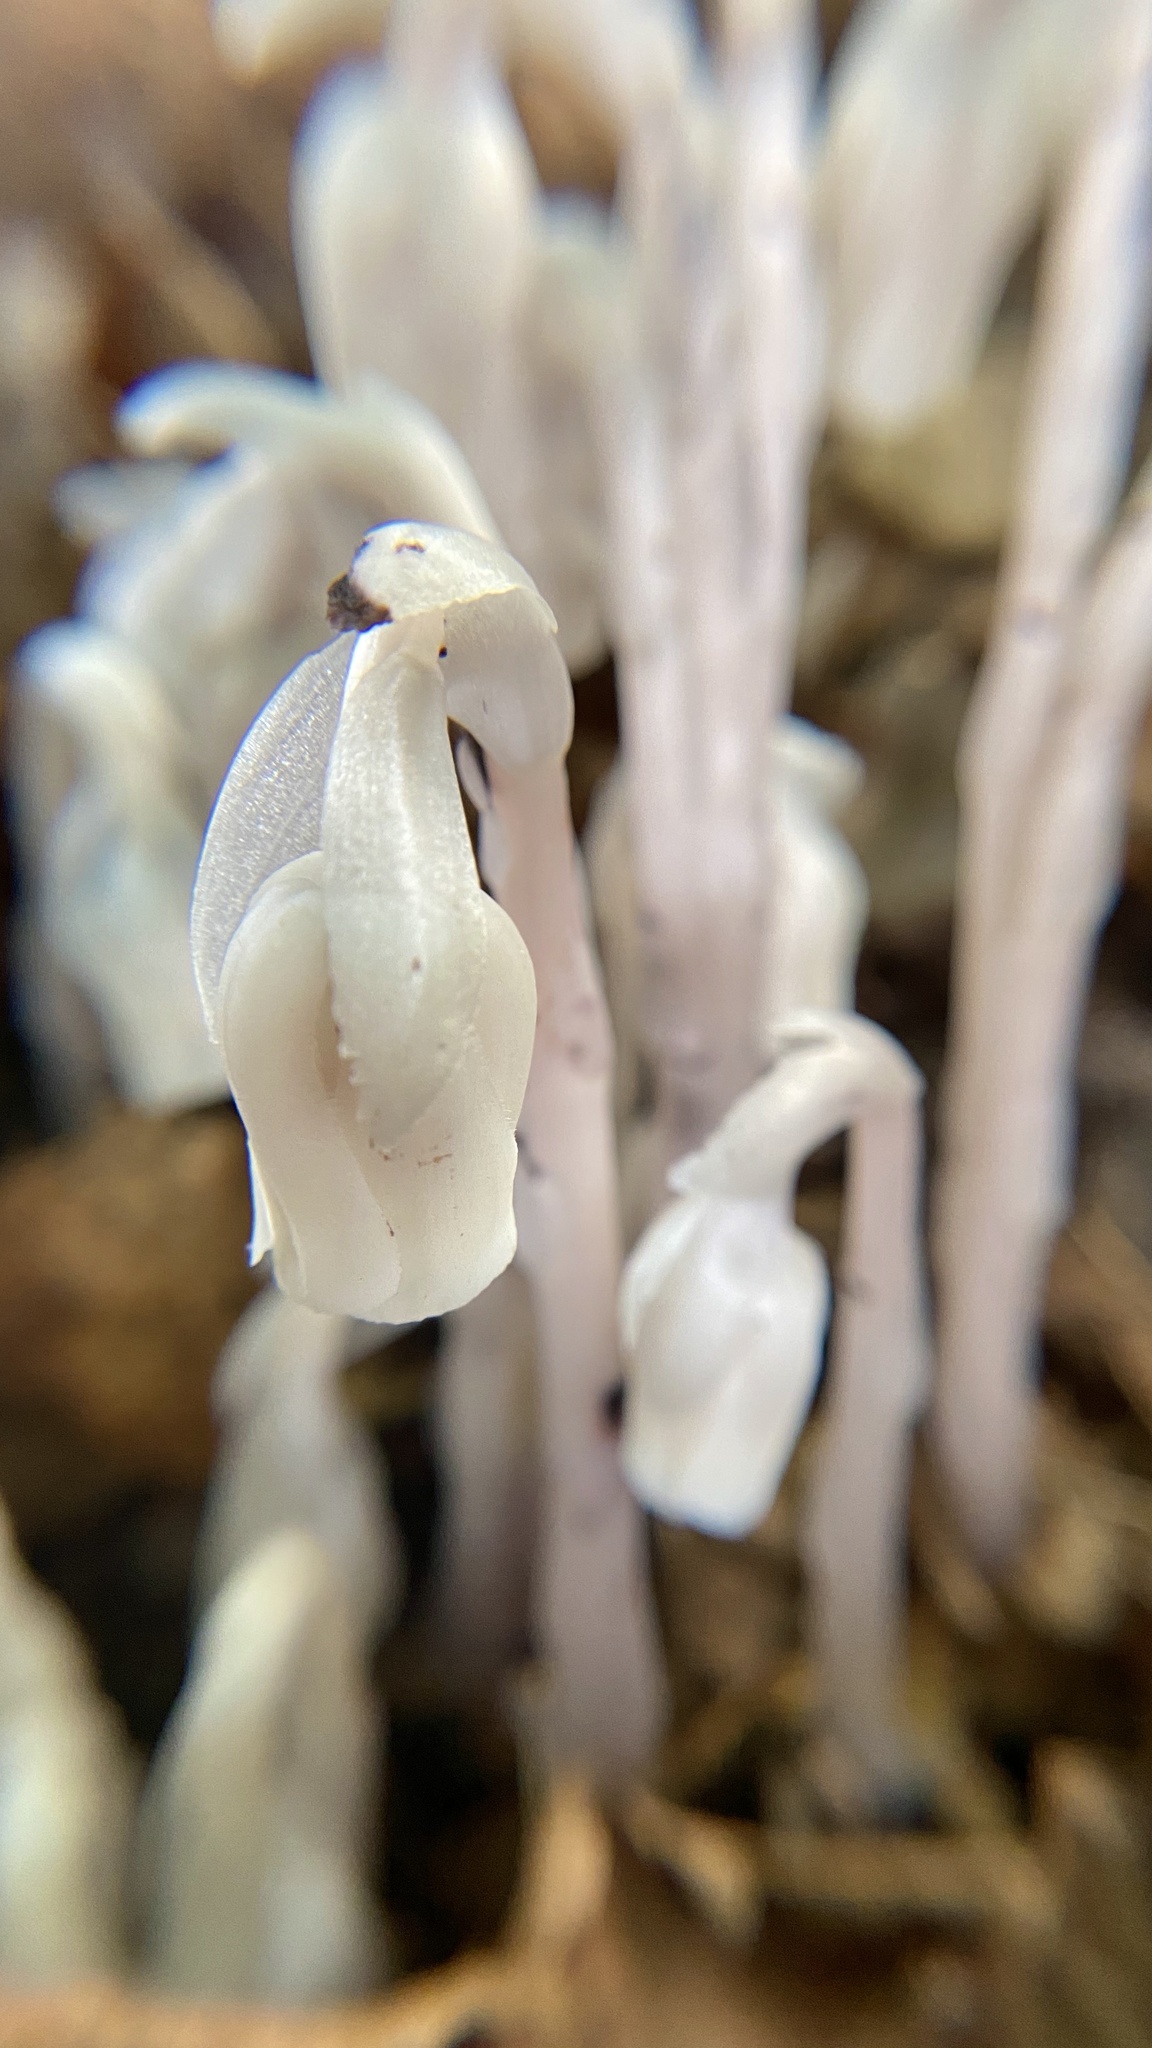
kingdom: Plantae
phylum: Tracheophyta
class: Magnoliopsida
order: Ericales
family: Ericaceae
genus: Monotropa
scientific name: Monotropa uniflora
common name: Convulsion root
